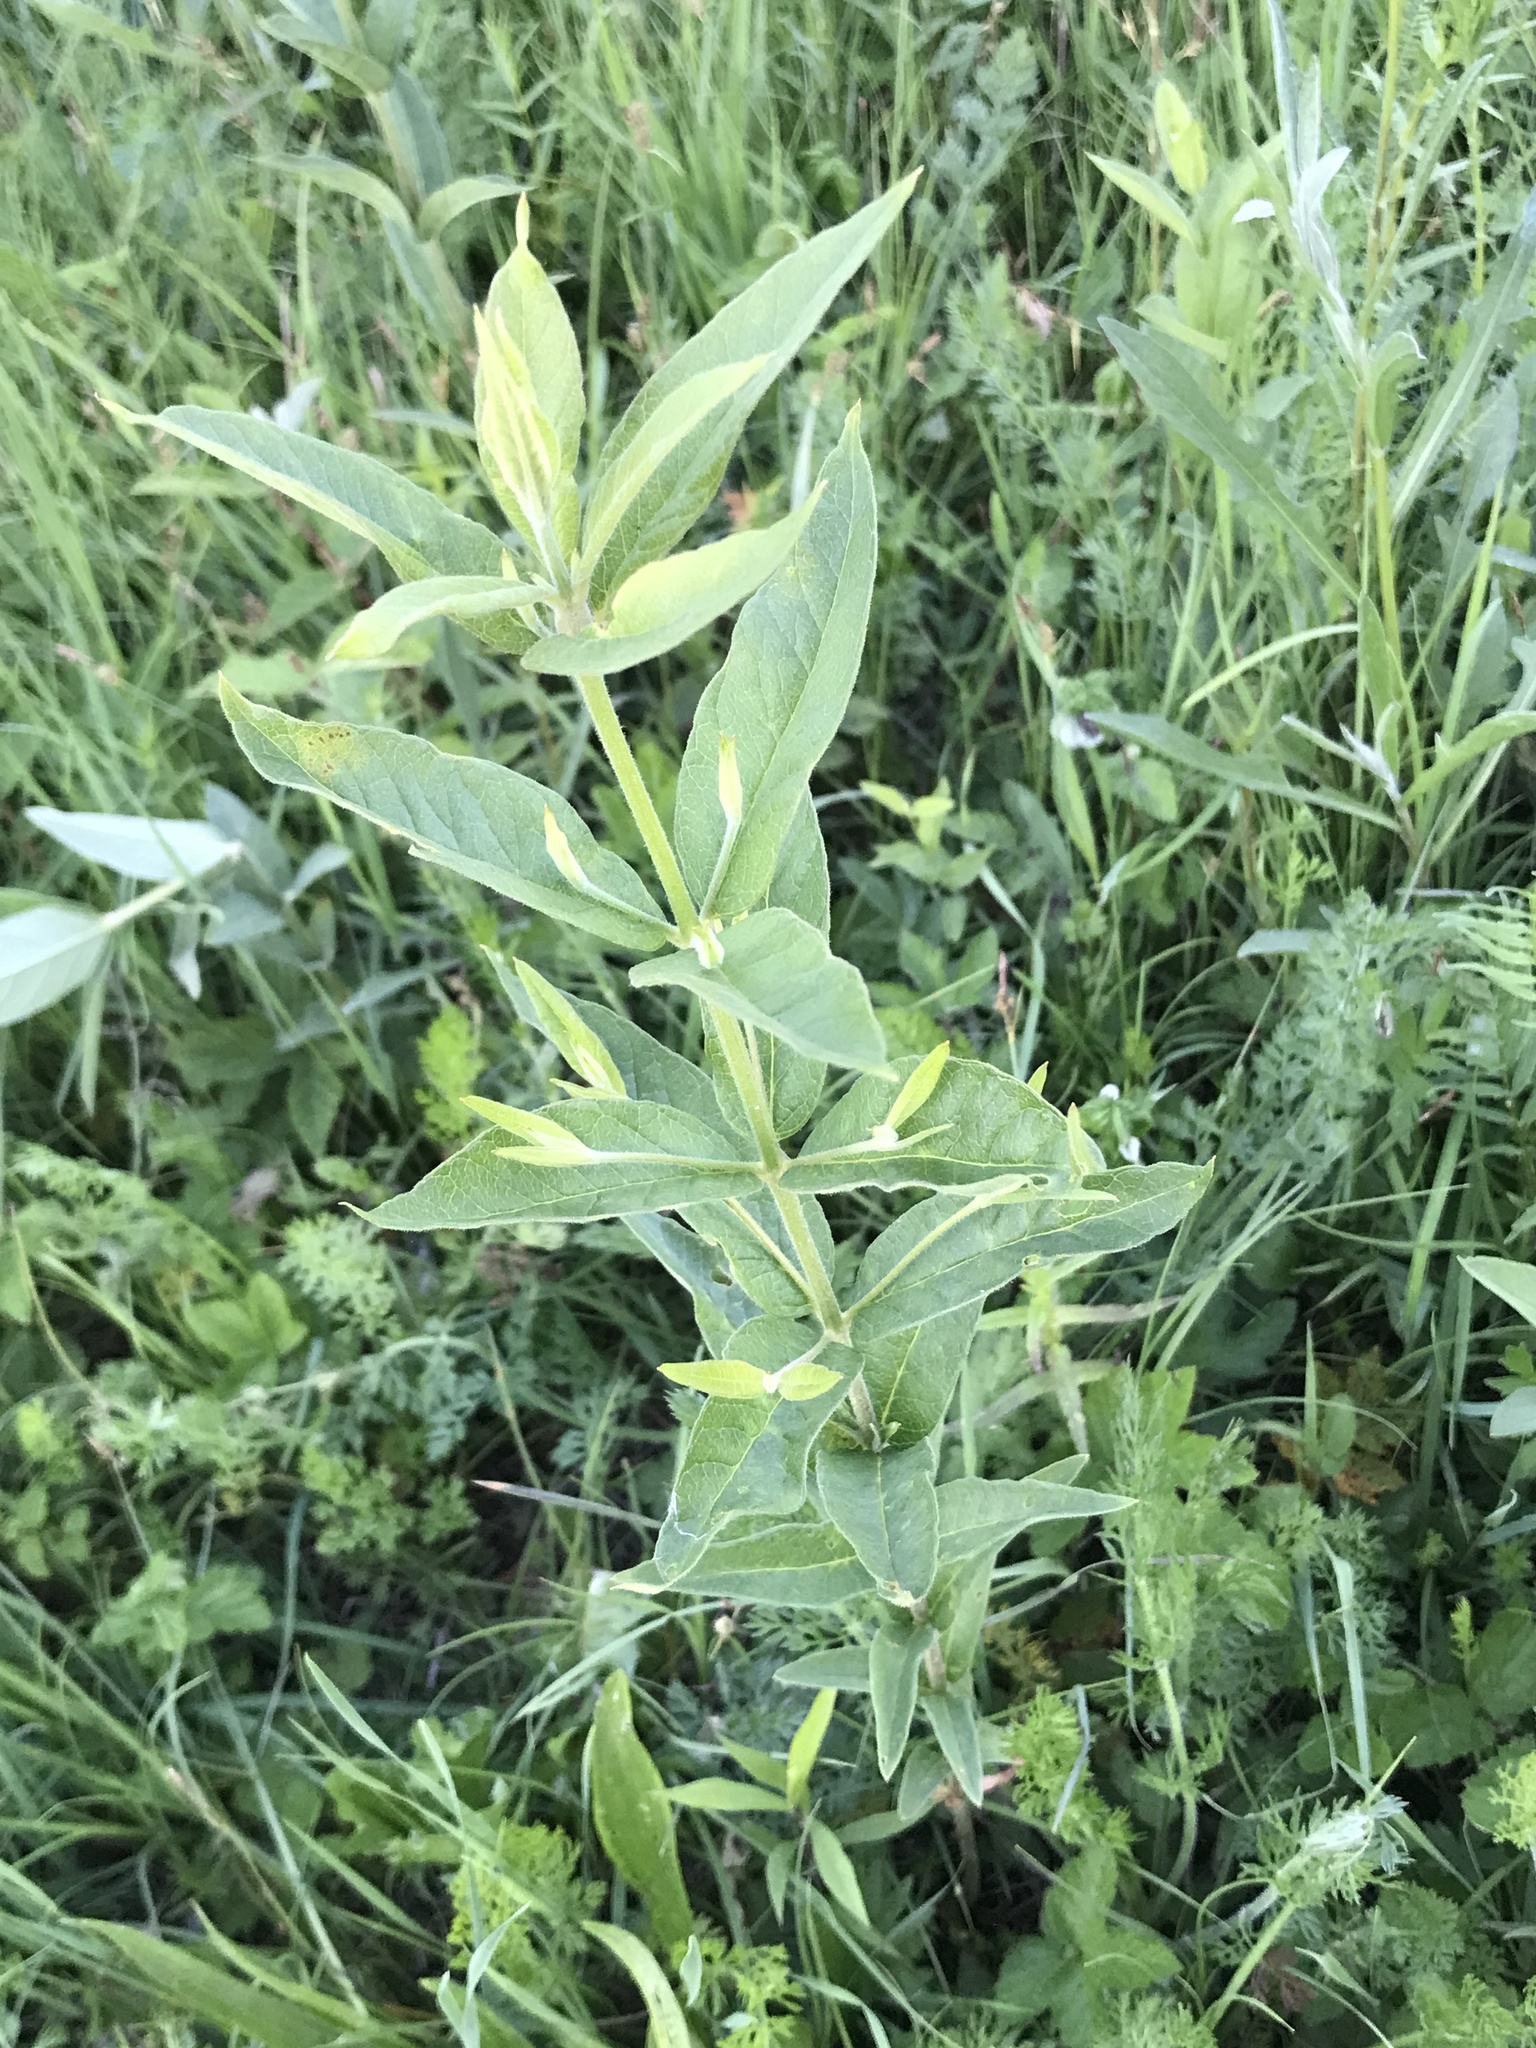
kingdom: Plantae
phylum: Tracheophyta
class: Magnoliopsida
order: Ericales
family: Primulaceae
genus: Lysimachia
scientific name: Lysimachia vulgaris
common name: Yellow loosestrife
